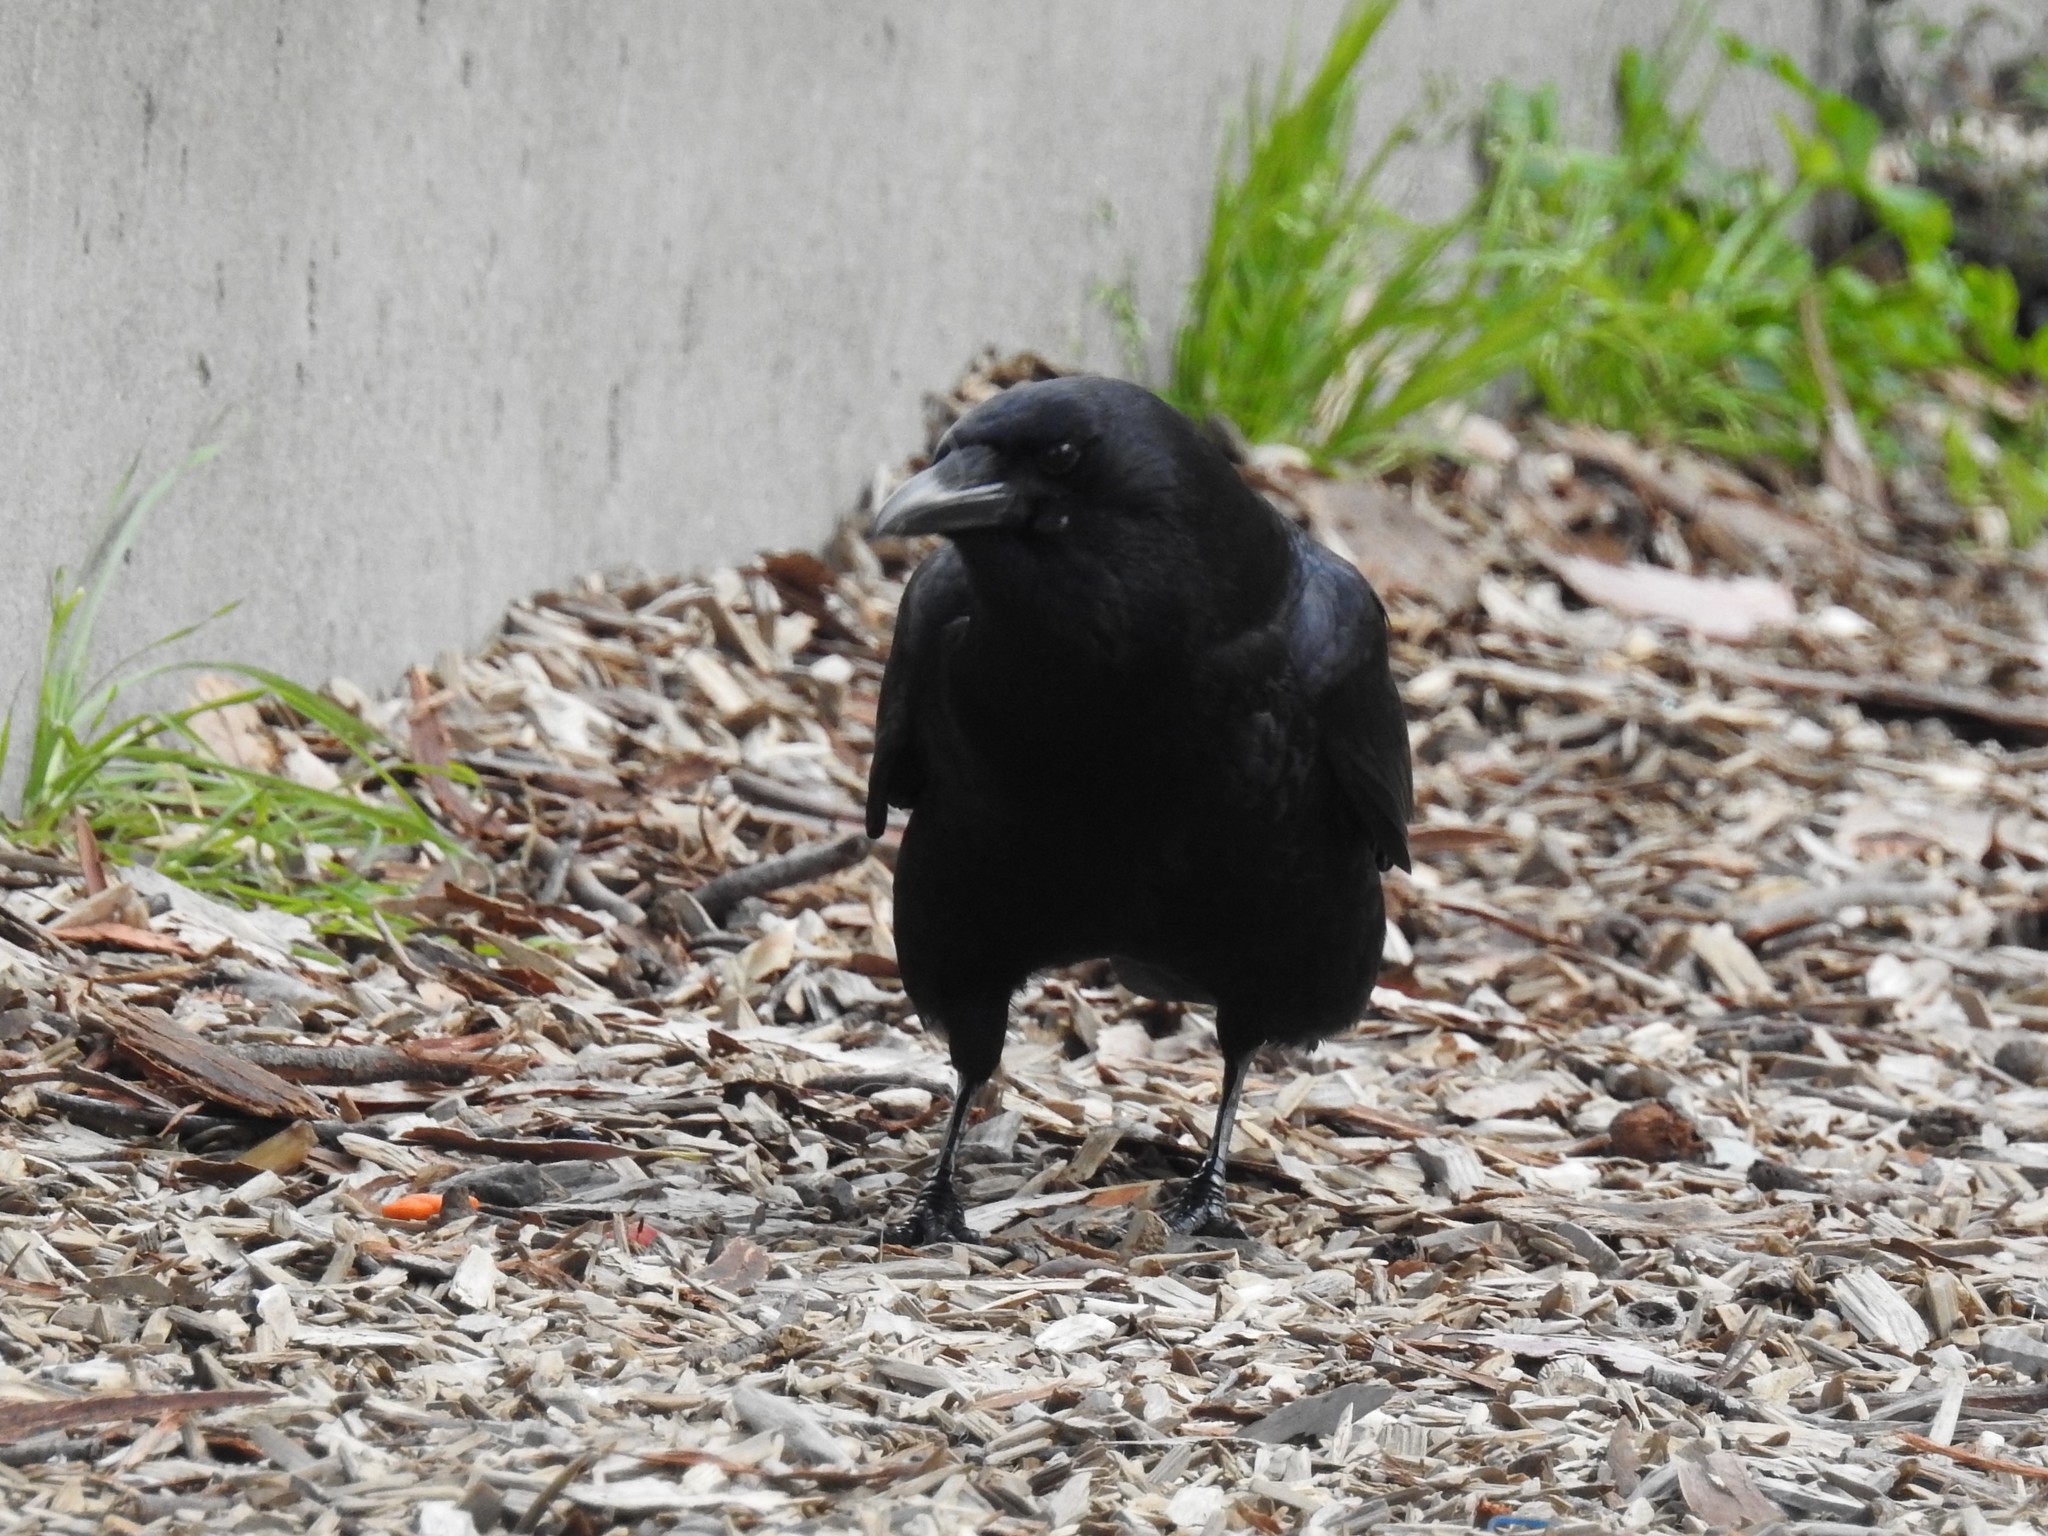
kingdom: Animalia
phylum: Chordata
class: Aves
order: Passeriformes
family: Corvidae
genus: Corvus
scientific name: Corvus brachyrhynchos
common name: American crow
